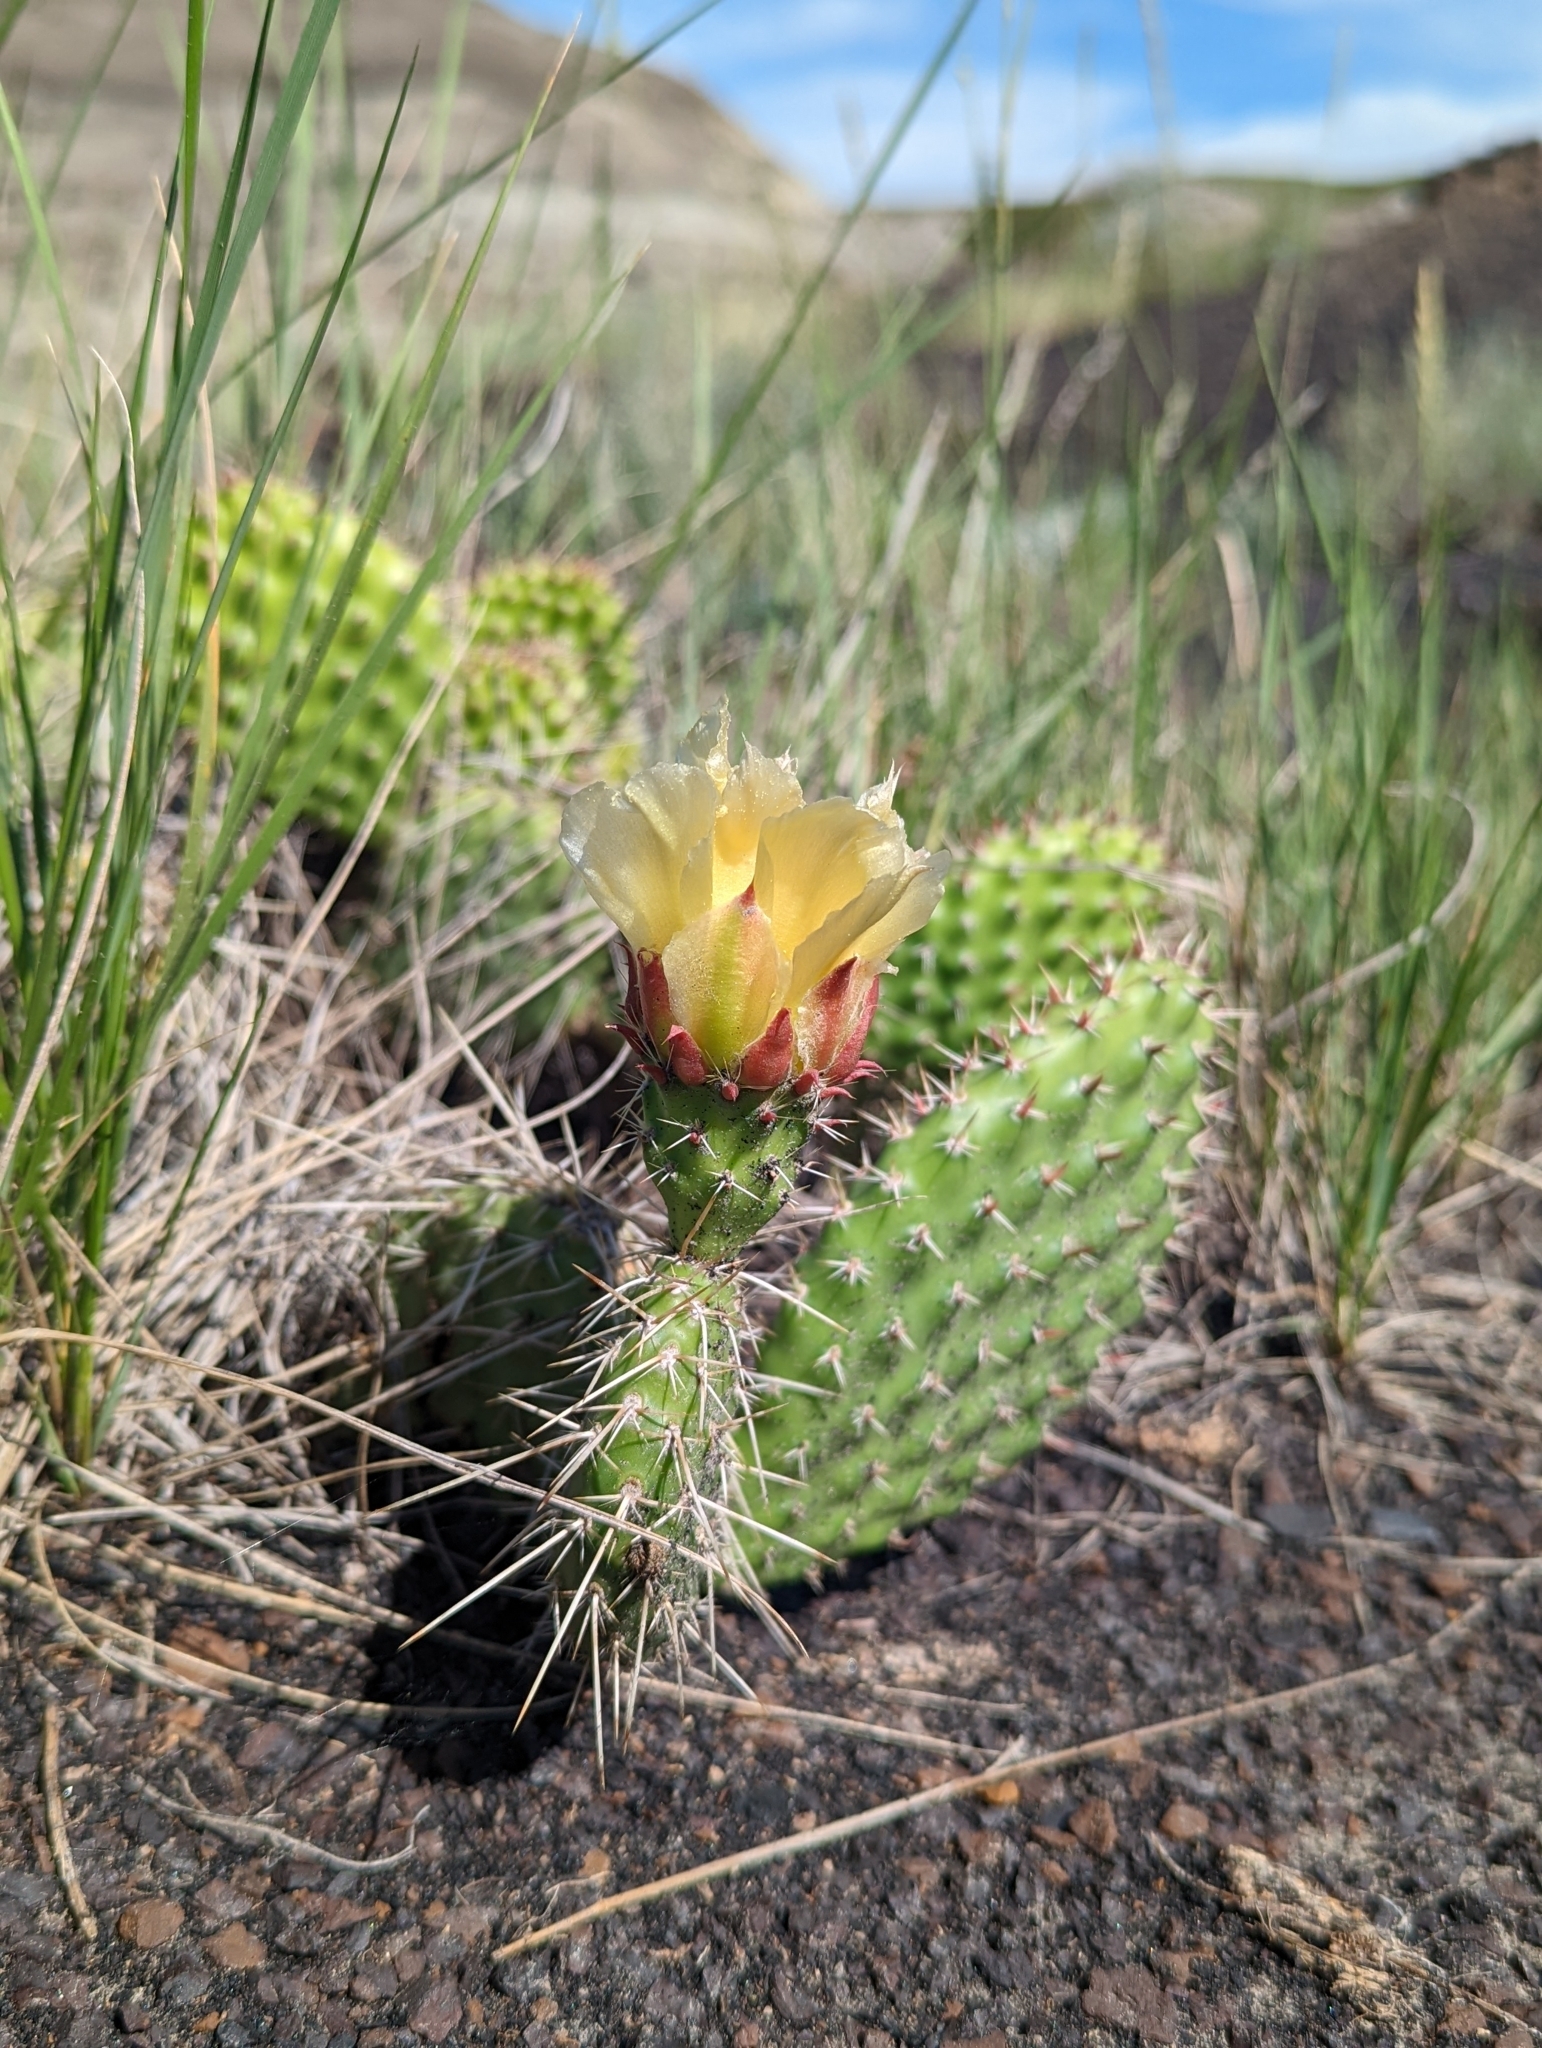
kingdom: Plantae
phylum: Tracheophyta
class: Magnoliopsida
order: Caryophyllales
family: Cactaceae
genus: Opuntia
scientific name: Opuntia polyacantha
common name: Plains prickly-pear
